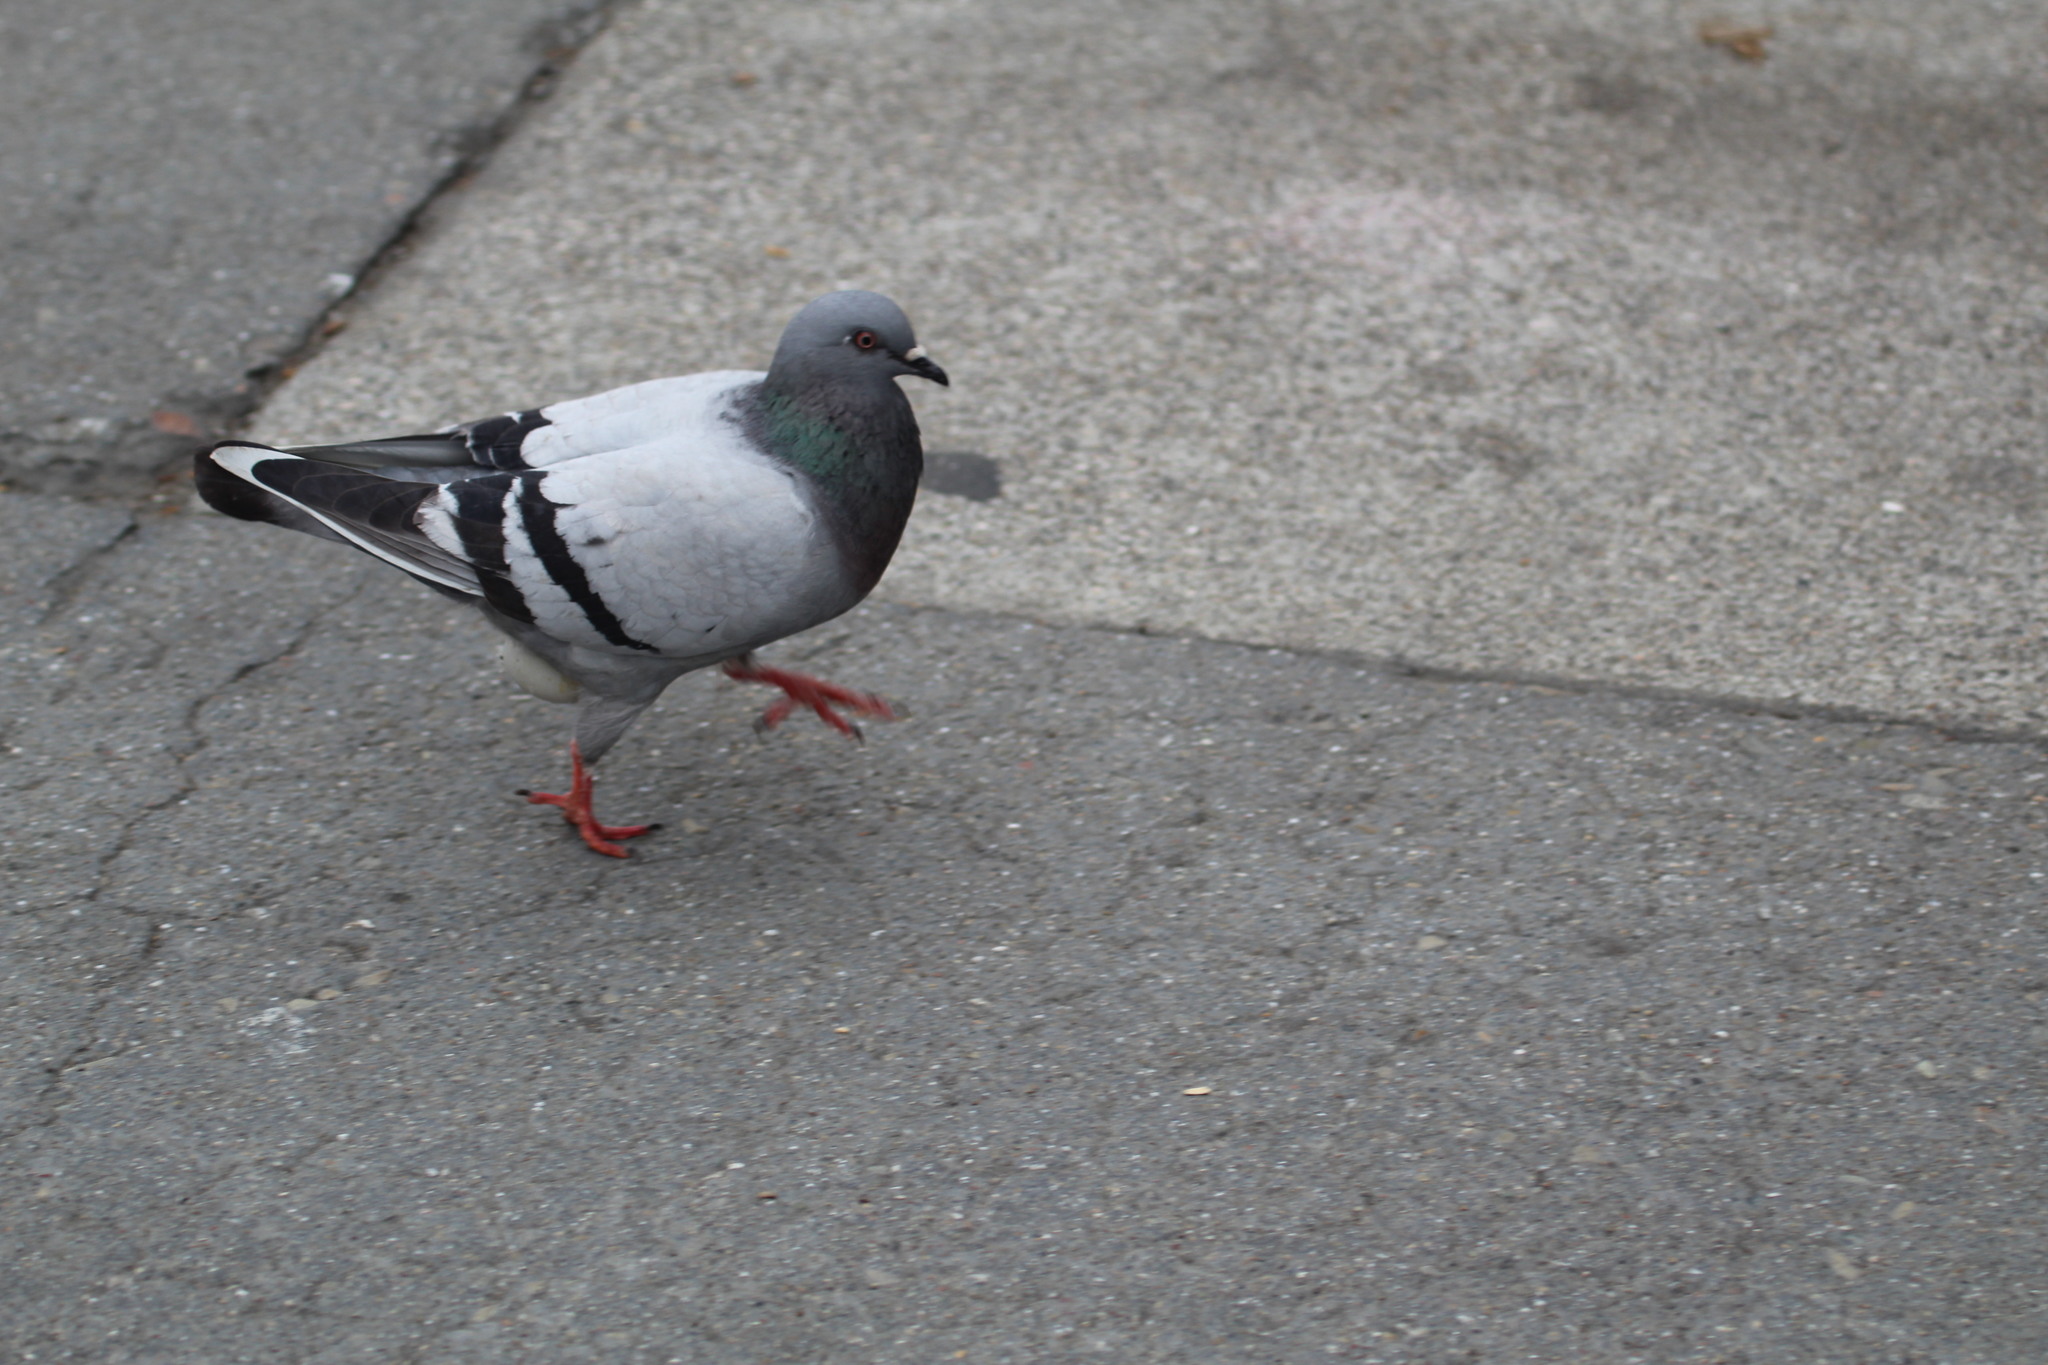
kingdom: Animalia
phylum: Chordata
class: Aves
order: Columbiformes
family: Columbidae
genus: Columba
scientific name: Columba livia
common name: Rock pigeon
